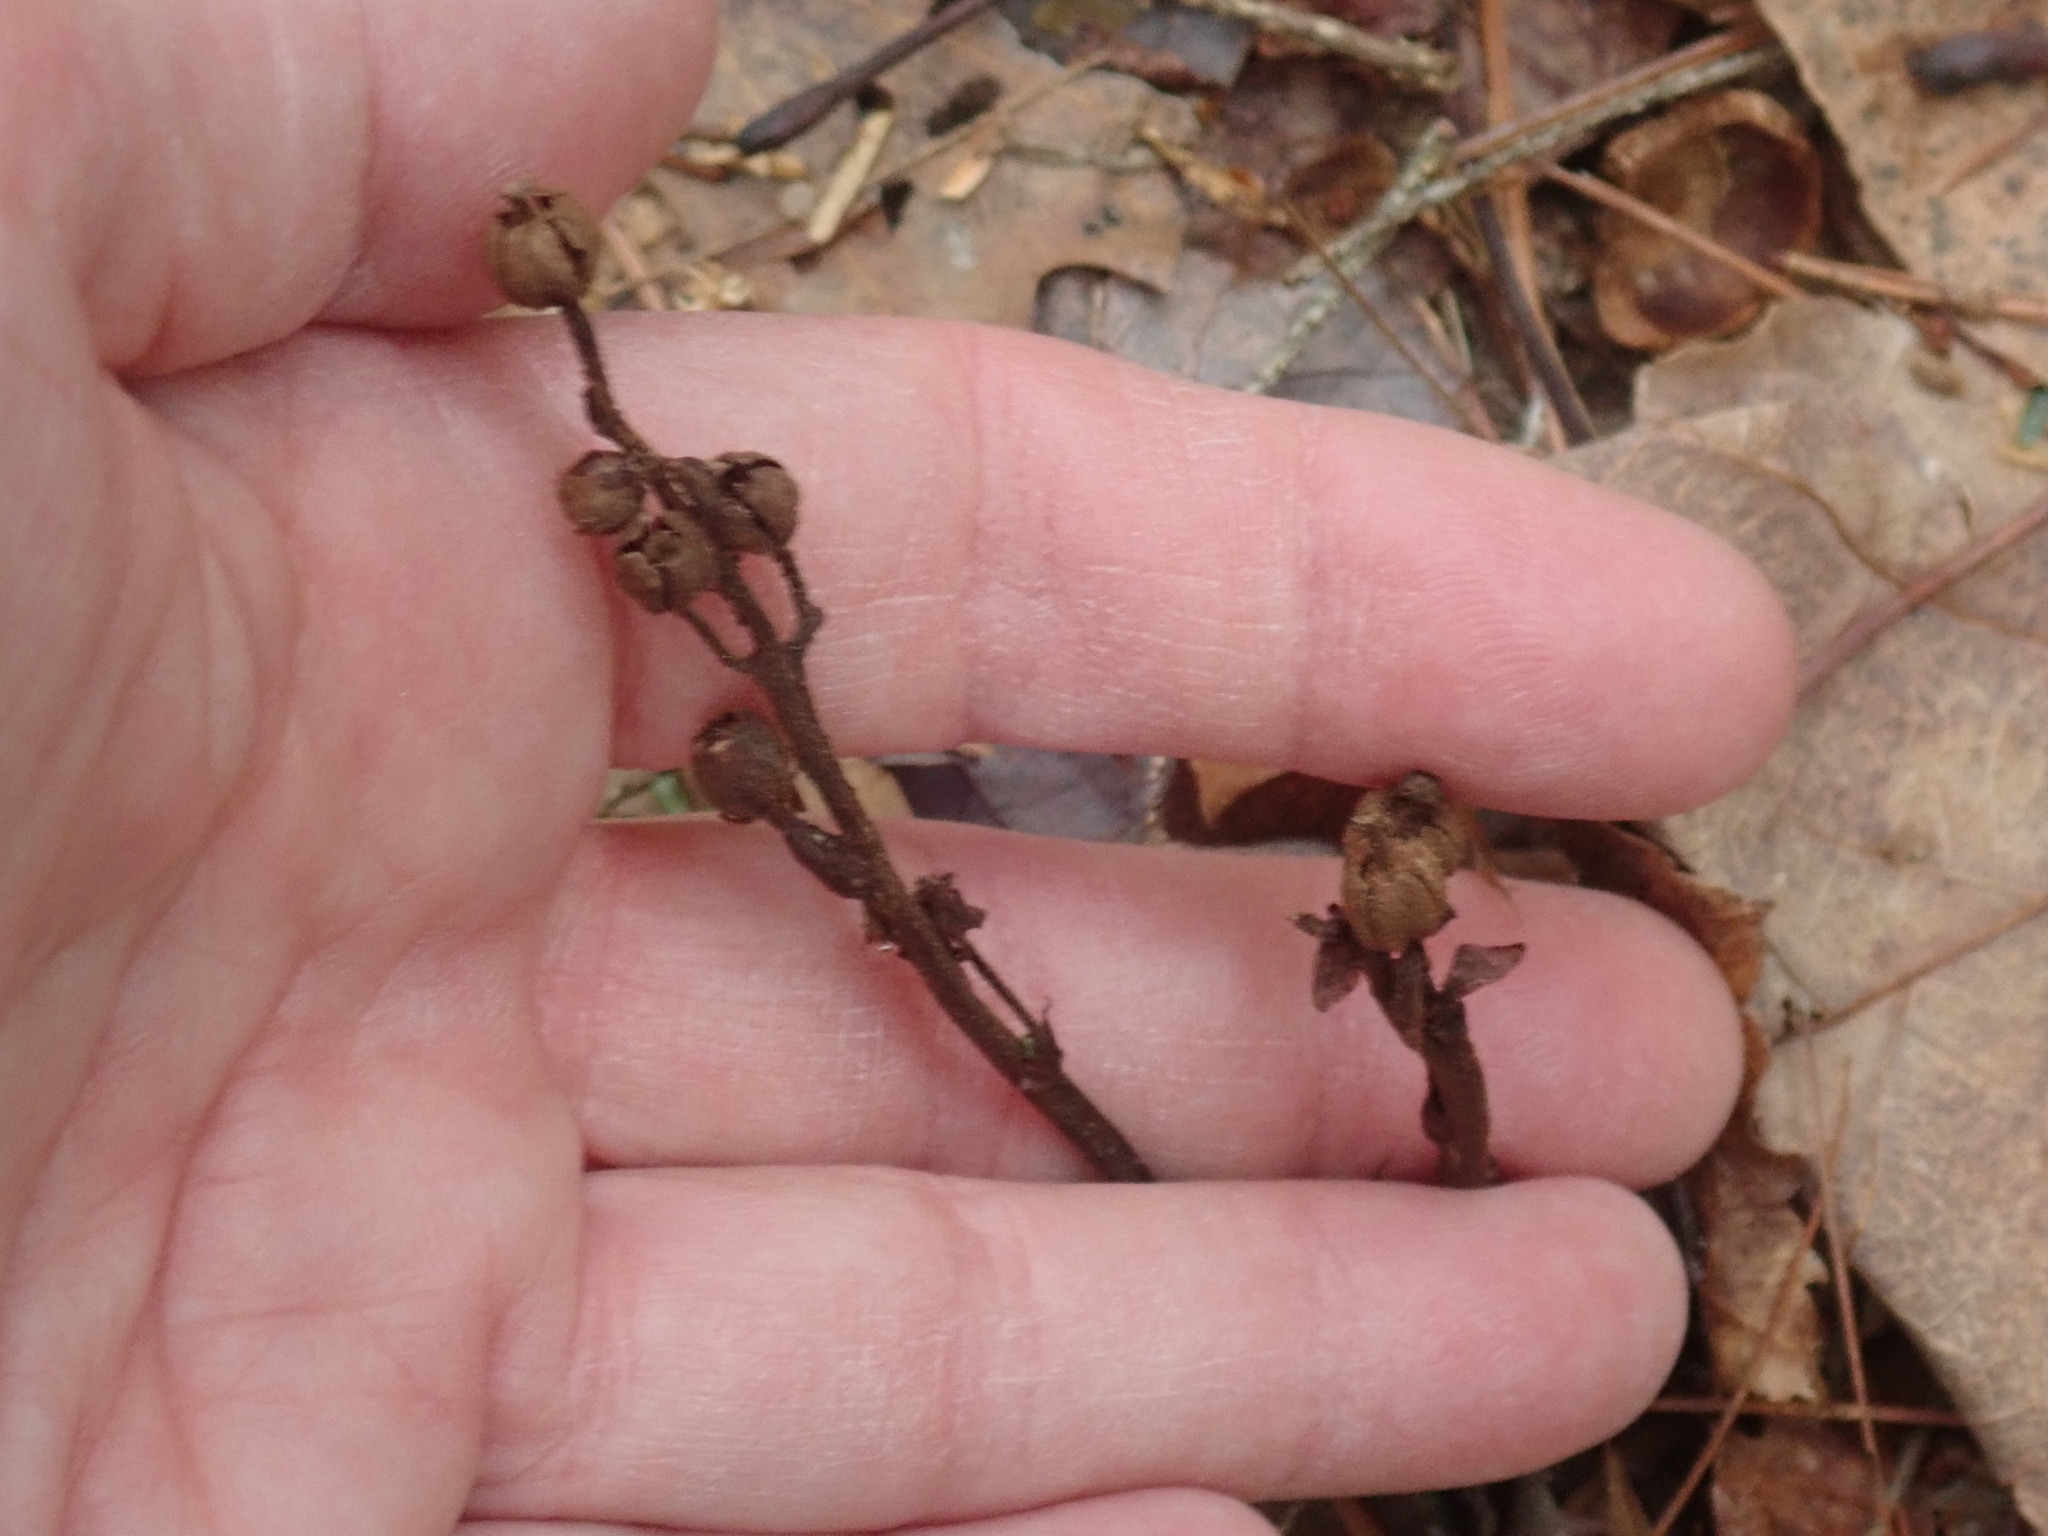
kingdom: Plantae
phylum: Tracheophyta
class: Magnoliopsida
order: Ericales
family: Ericaceae
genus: Hypopitys
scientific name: Hypopitys monotropa
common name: Yellow bird's-nest
